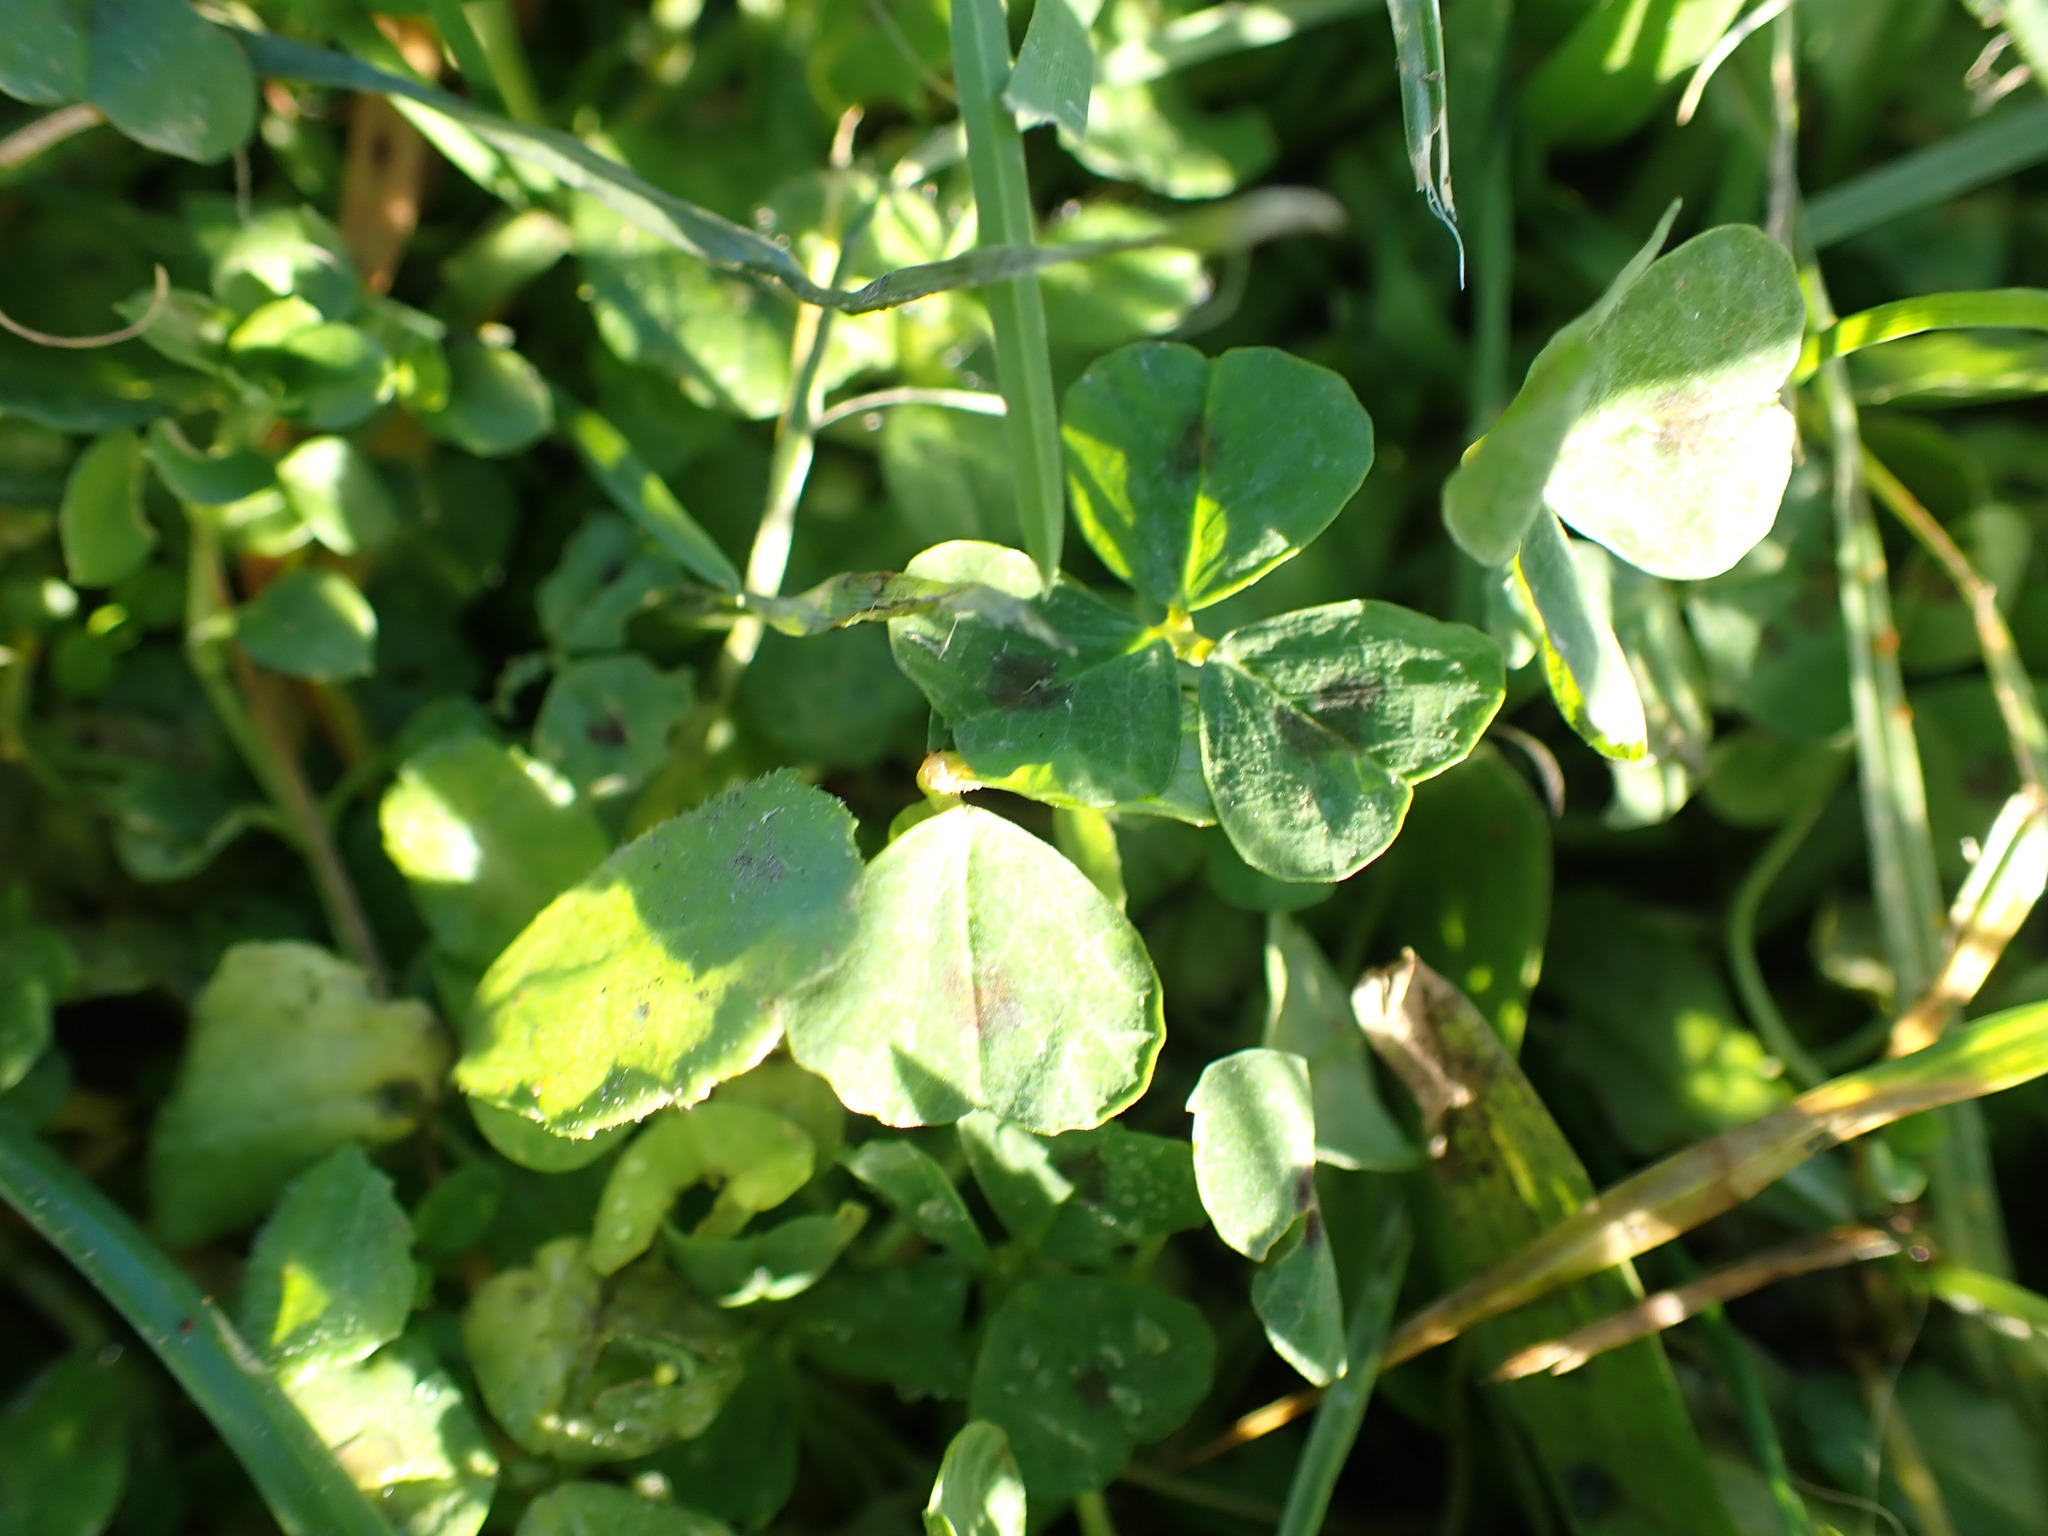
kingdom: Plantae
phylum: Tracheophyta
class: Magnoliopsida
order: Fabales
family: Fabaceae
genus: Medicago
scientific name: Medicago arabica
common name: Spotted medick
